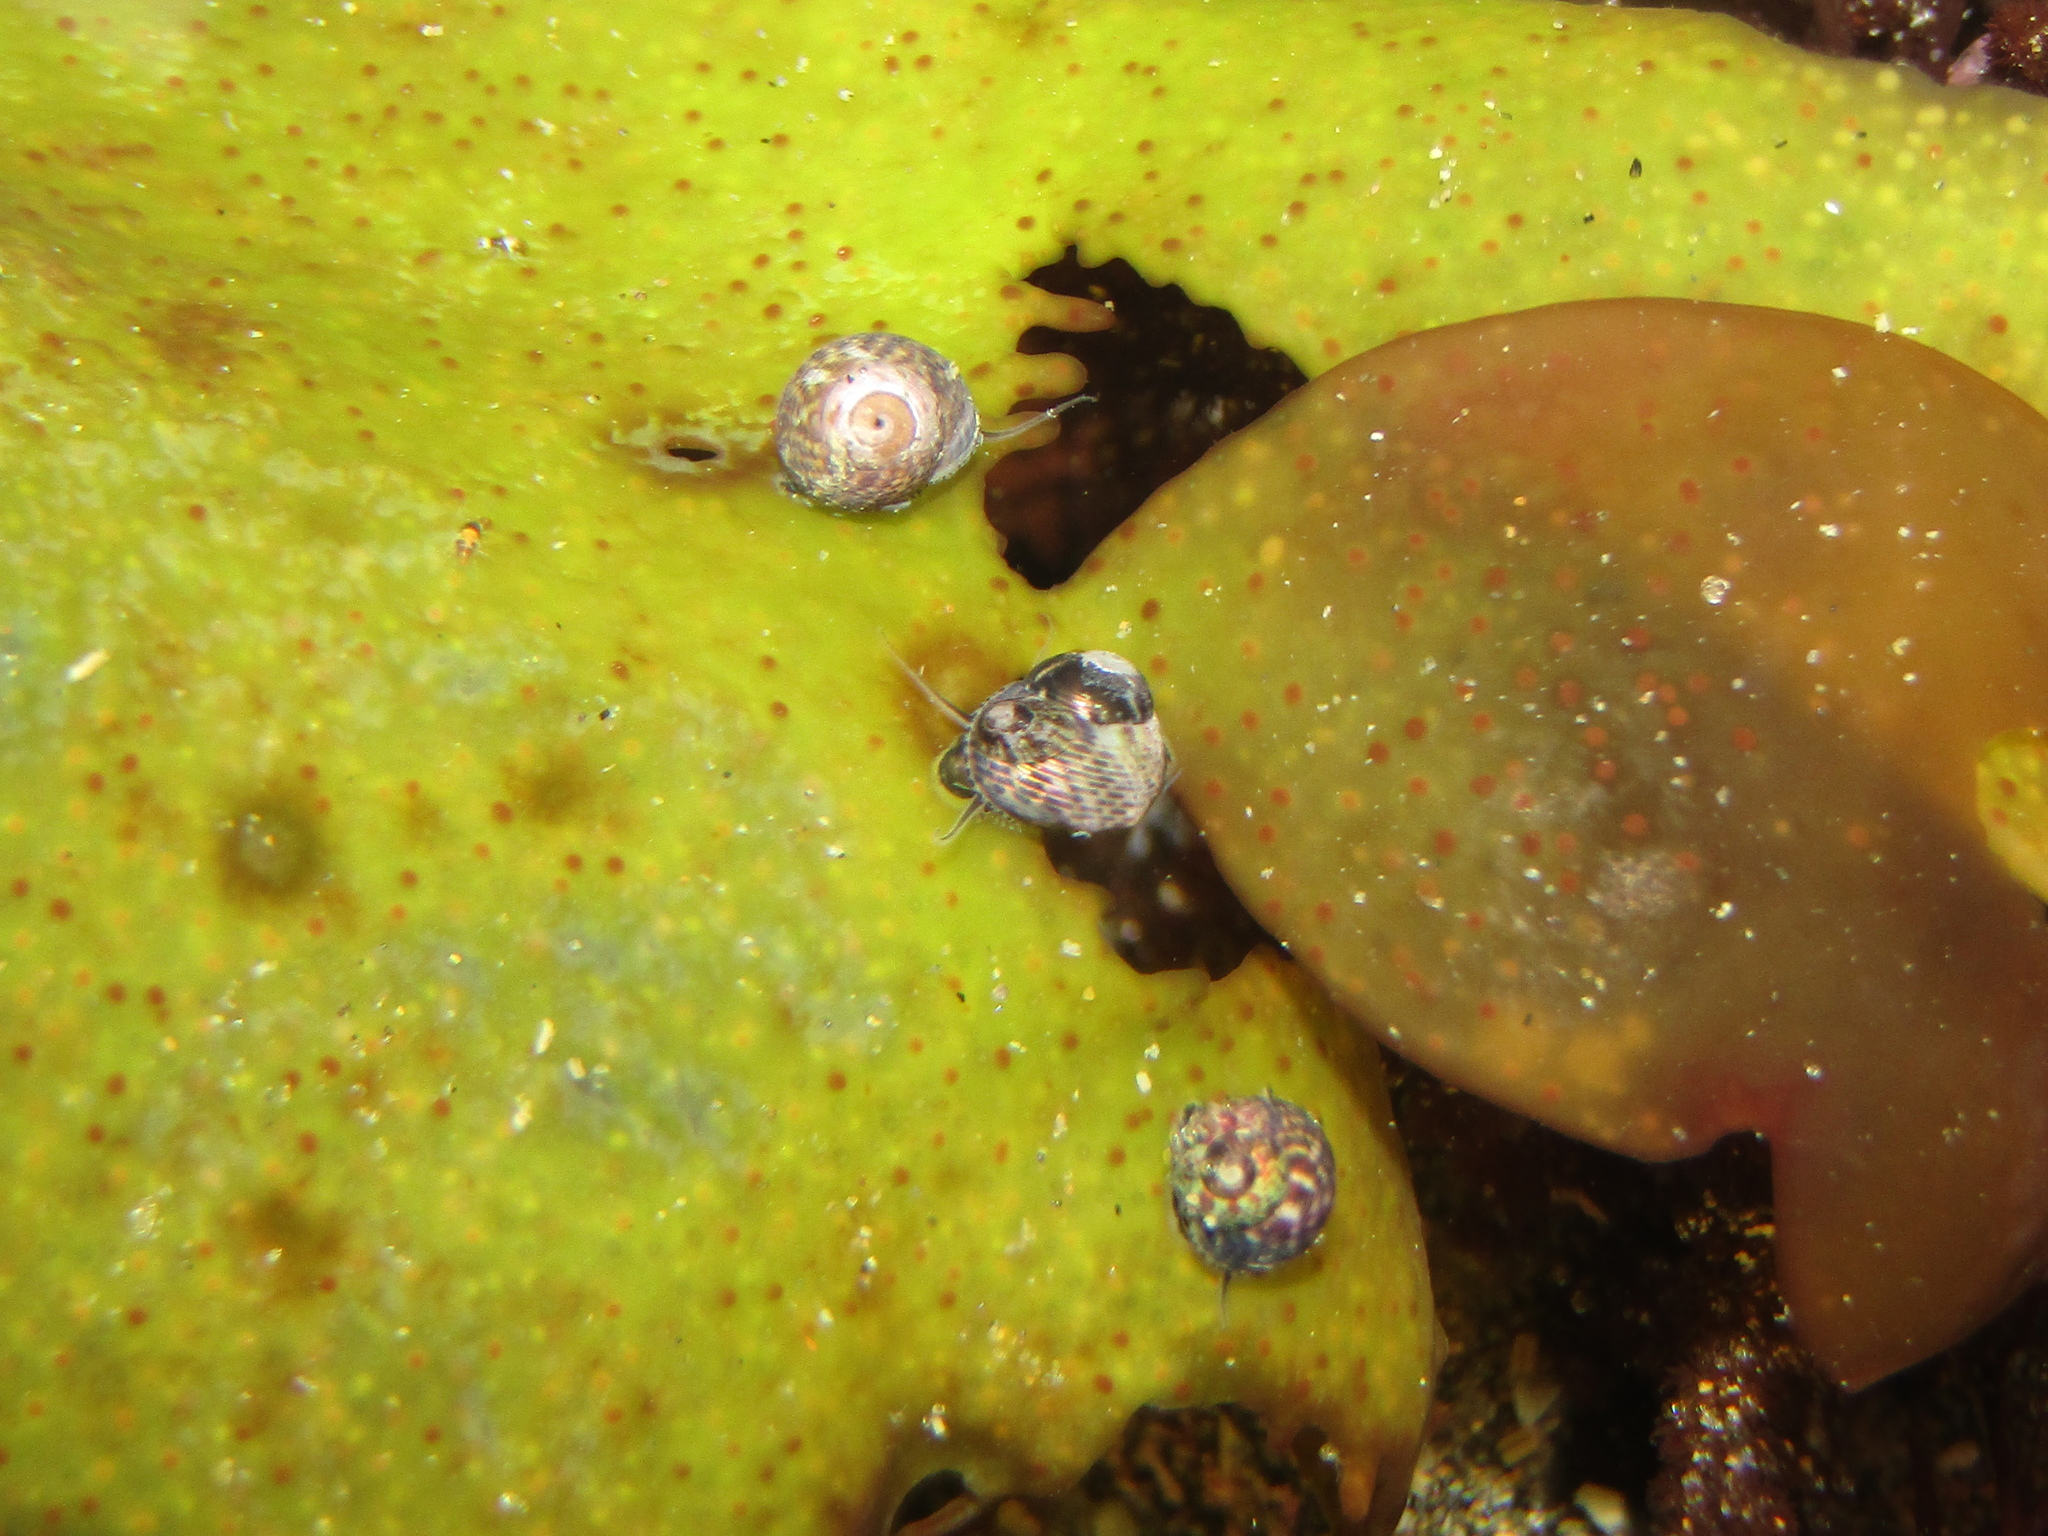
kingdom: Animalia
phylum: Mollusca
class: Gastropoda
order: Trochida
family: Trochidae
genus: Micrelenchus
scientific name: Micrelenchus tessellatus
